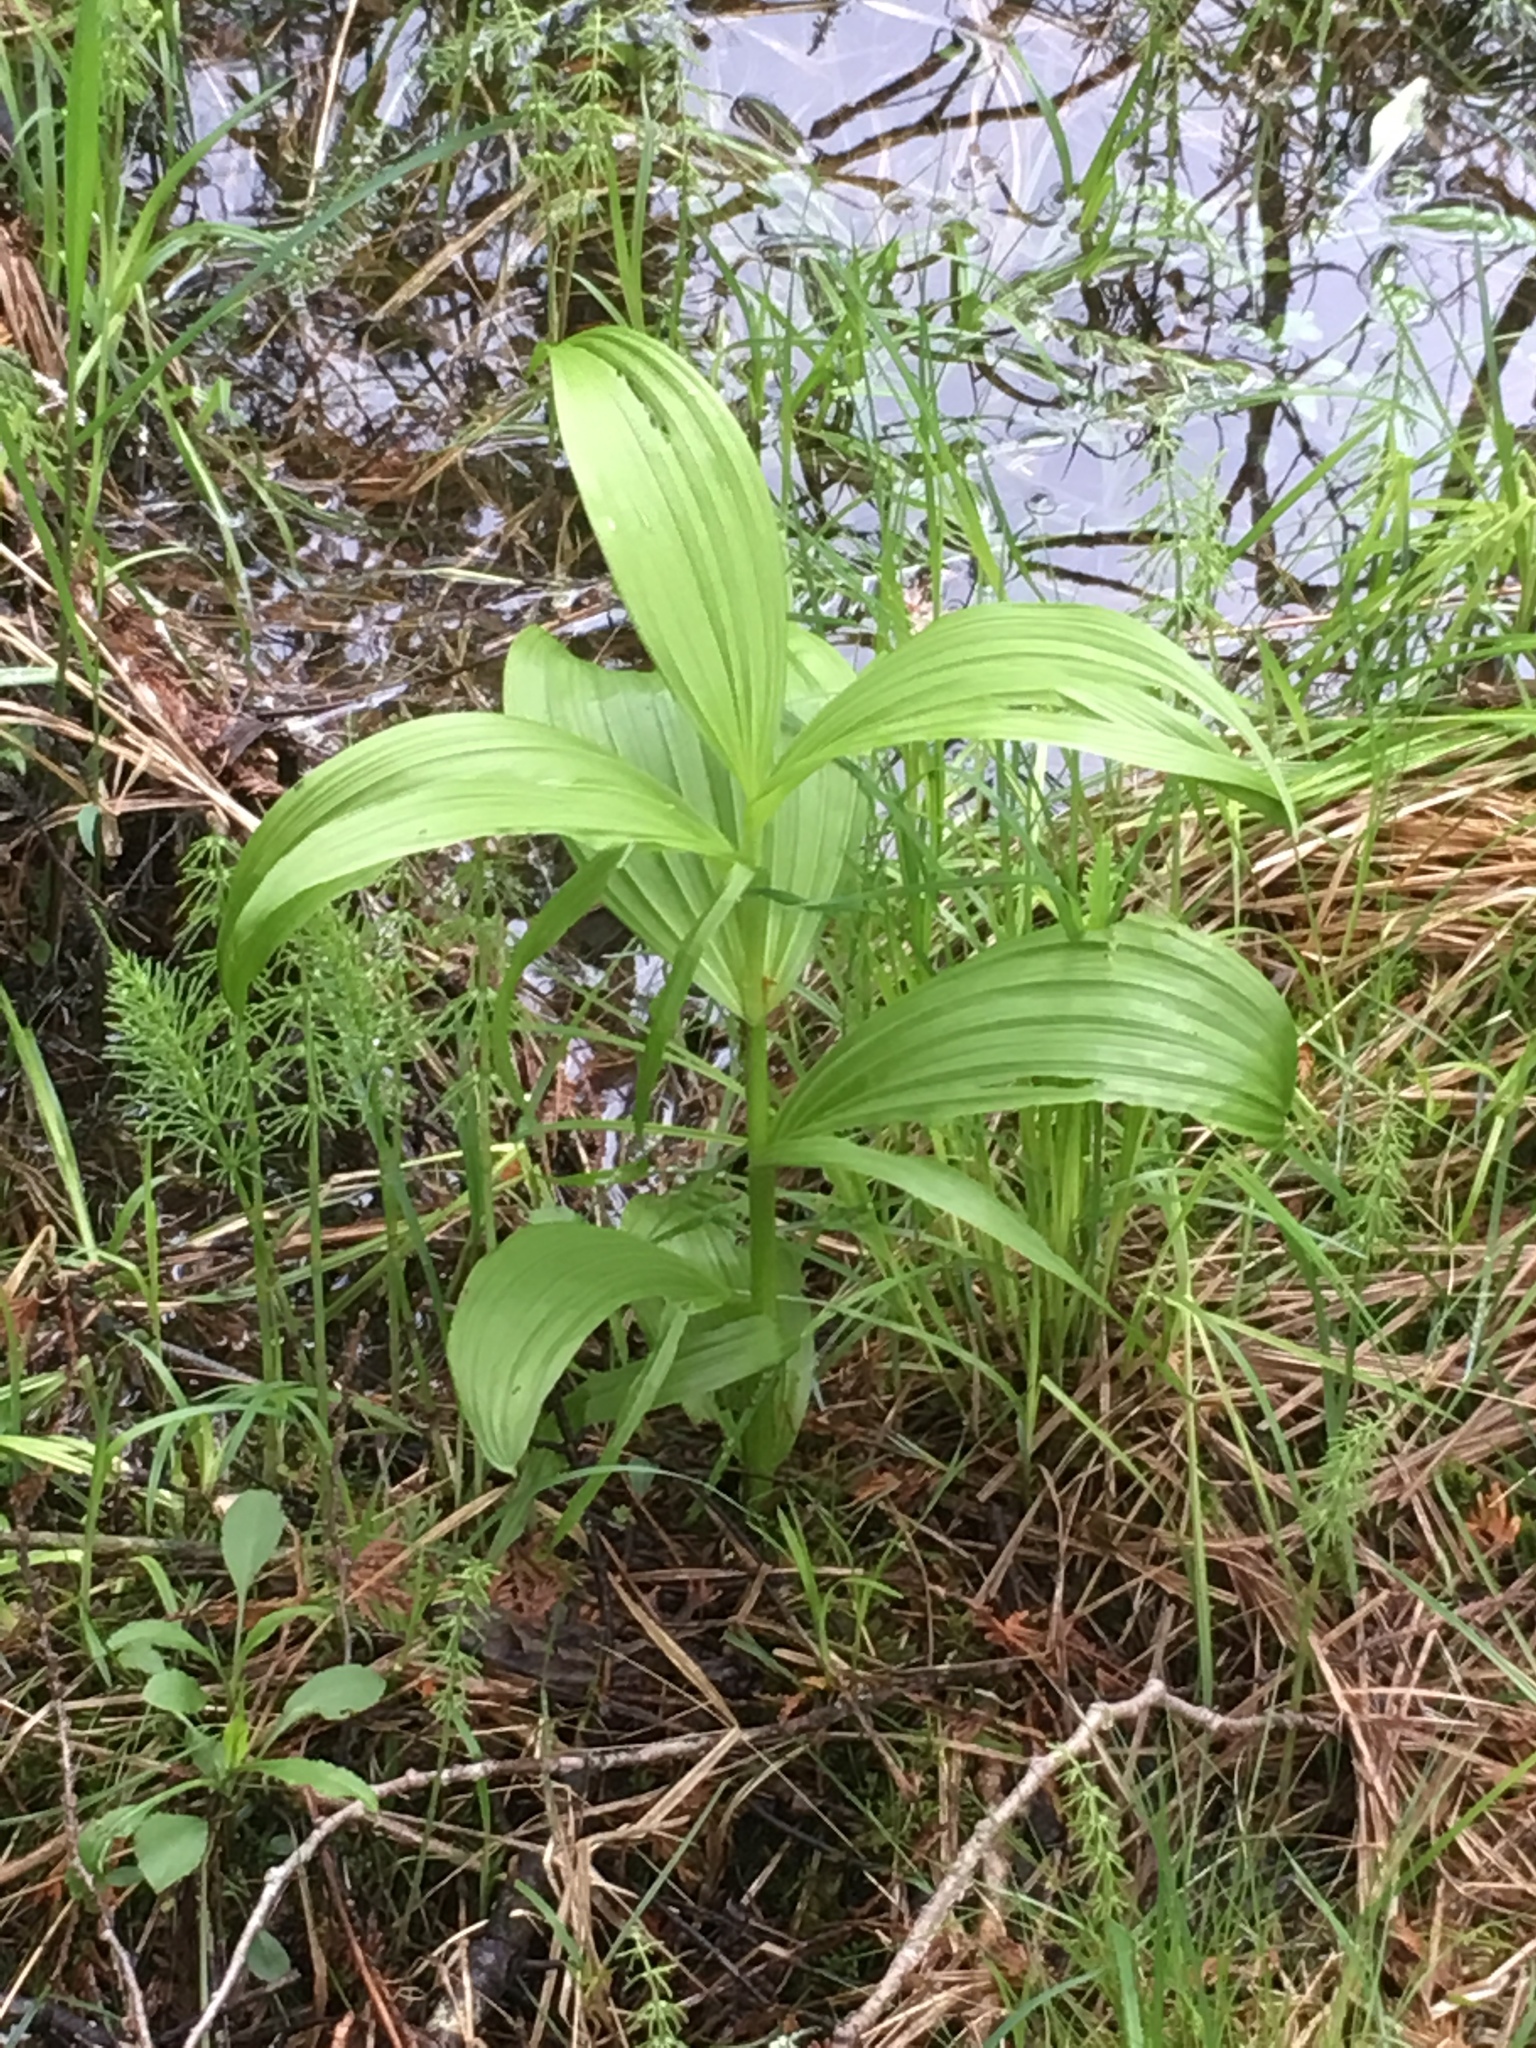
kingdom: Plantae
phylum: Tracheophyta
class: Liliopsida
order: Liliales
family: Melanthiaceae
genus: Veratrum
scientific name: Veratrum viride
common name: American false hellebore
